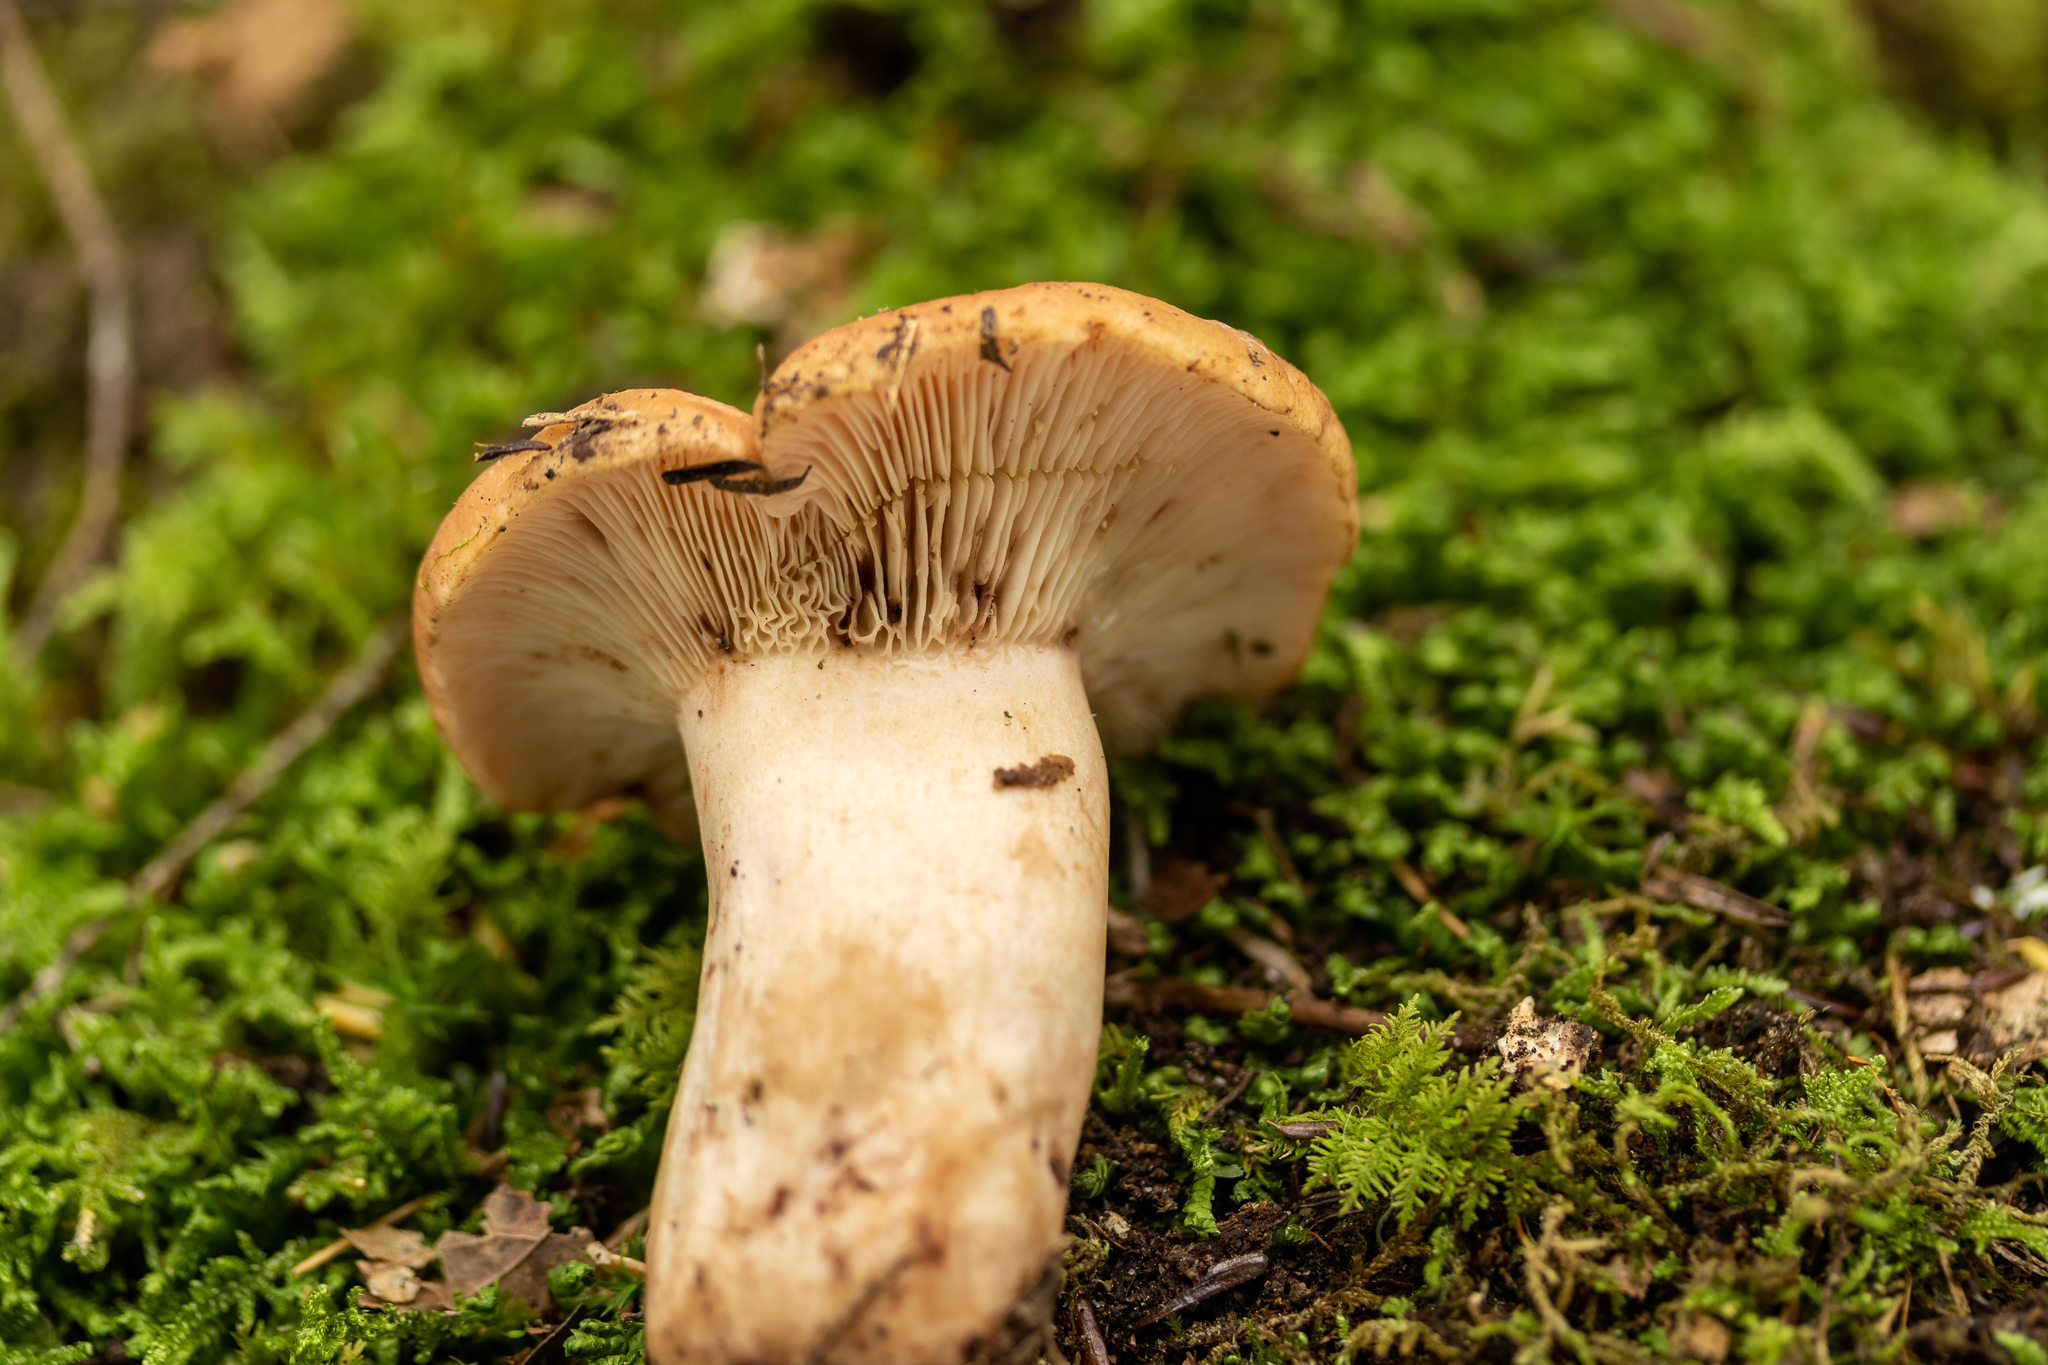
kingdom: Fungi
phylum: Basidiomycota
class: Agaricomycetes
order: Russulales
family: Russulaceae
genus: Lactarius
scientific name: Lactarius vinaceorufescens
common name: Yellow-latex milkcap
